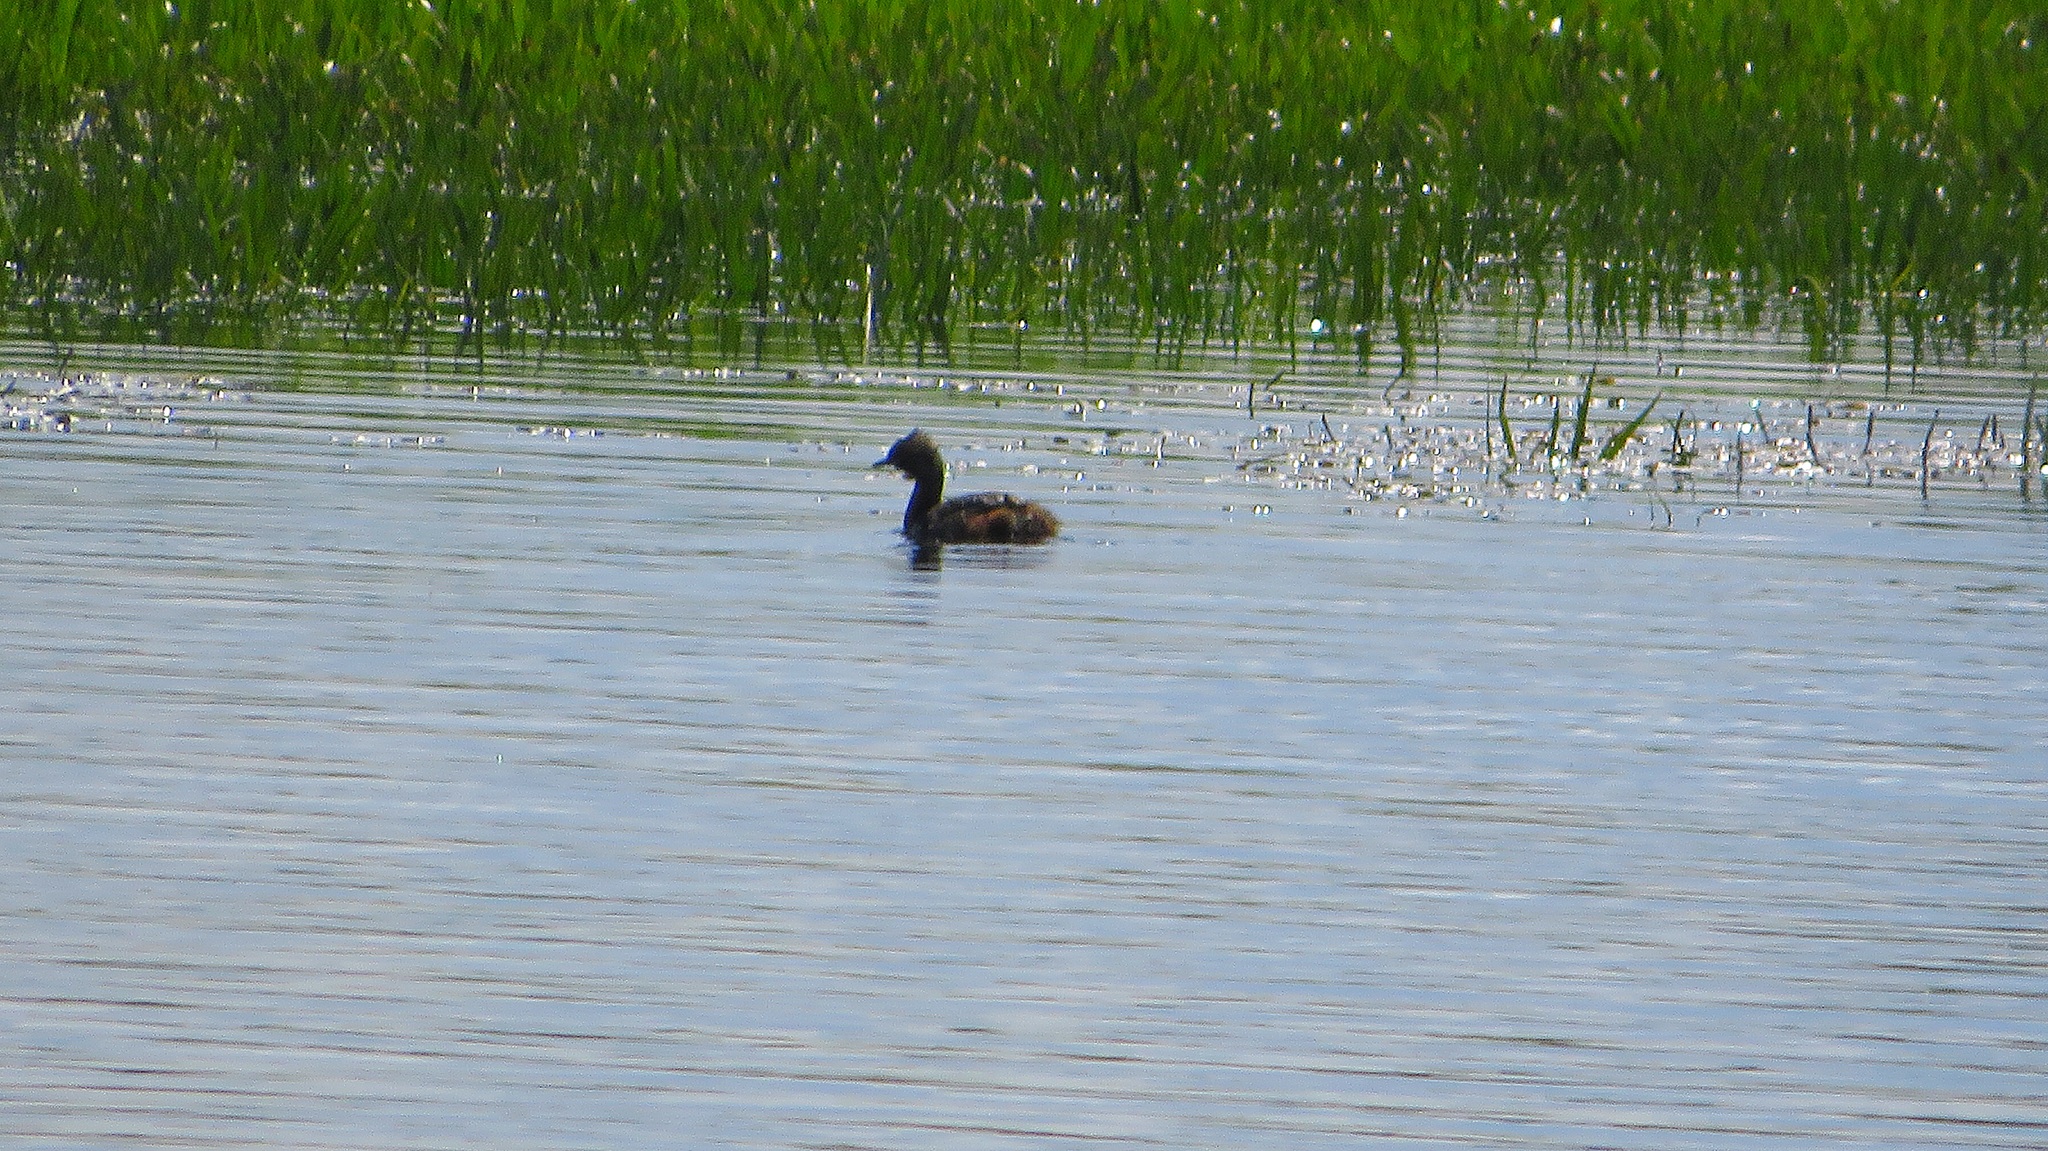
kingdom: Animalia
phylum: Chordata
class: Aves
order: Podicipediformes
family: Podicipedidae
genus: Podiceps
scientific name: Podiceps auritus
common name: Horned grebe
